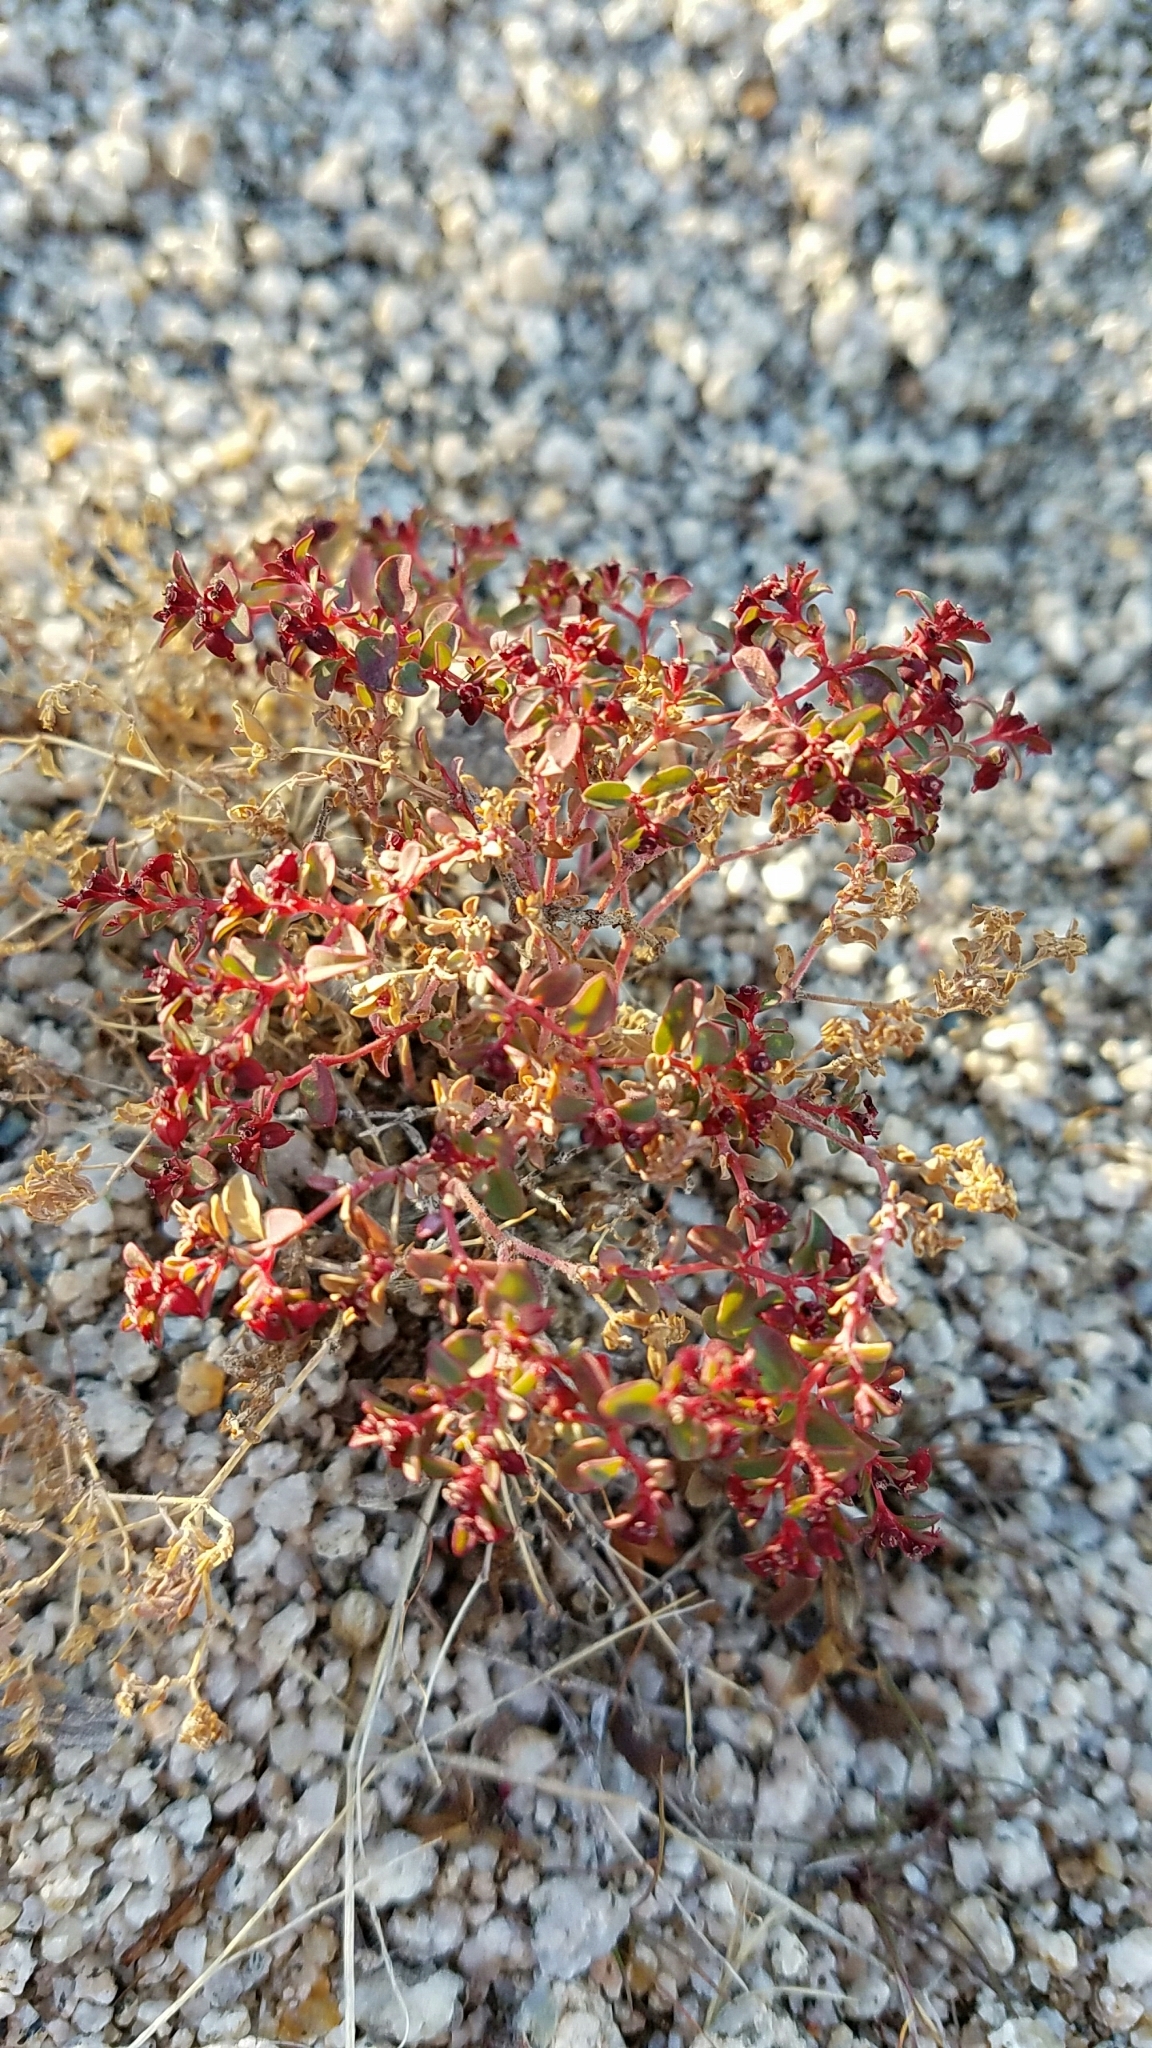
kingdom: Plantae
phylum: Tracheophyta
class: Magnoliopsida
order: Malpighiales
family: Euphorbiaceae
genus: Euphorbia
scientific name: Euphorbia polycarpa
